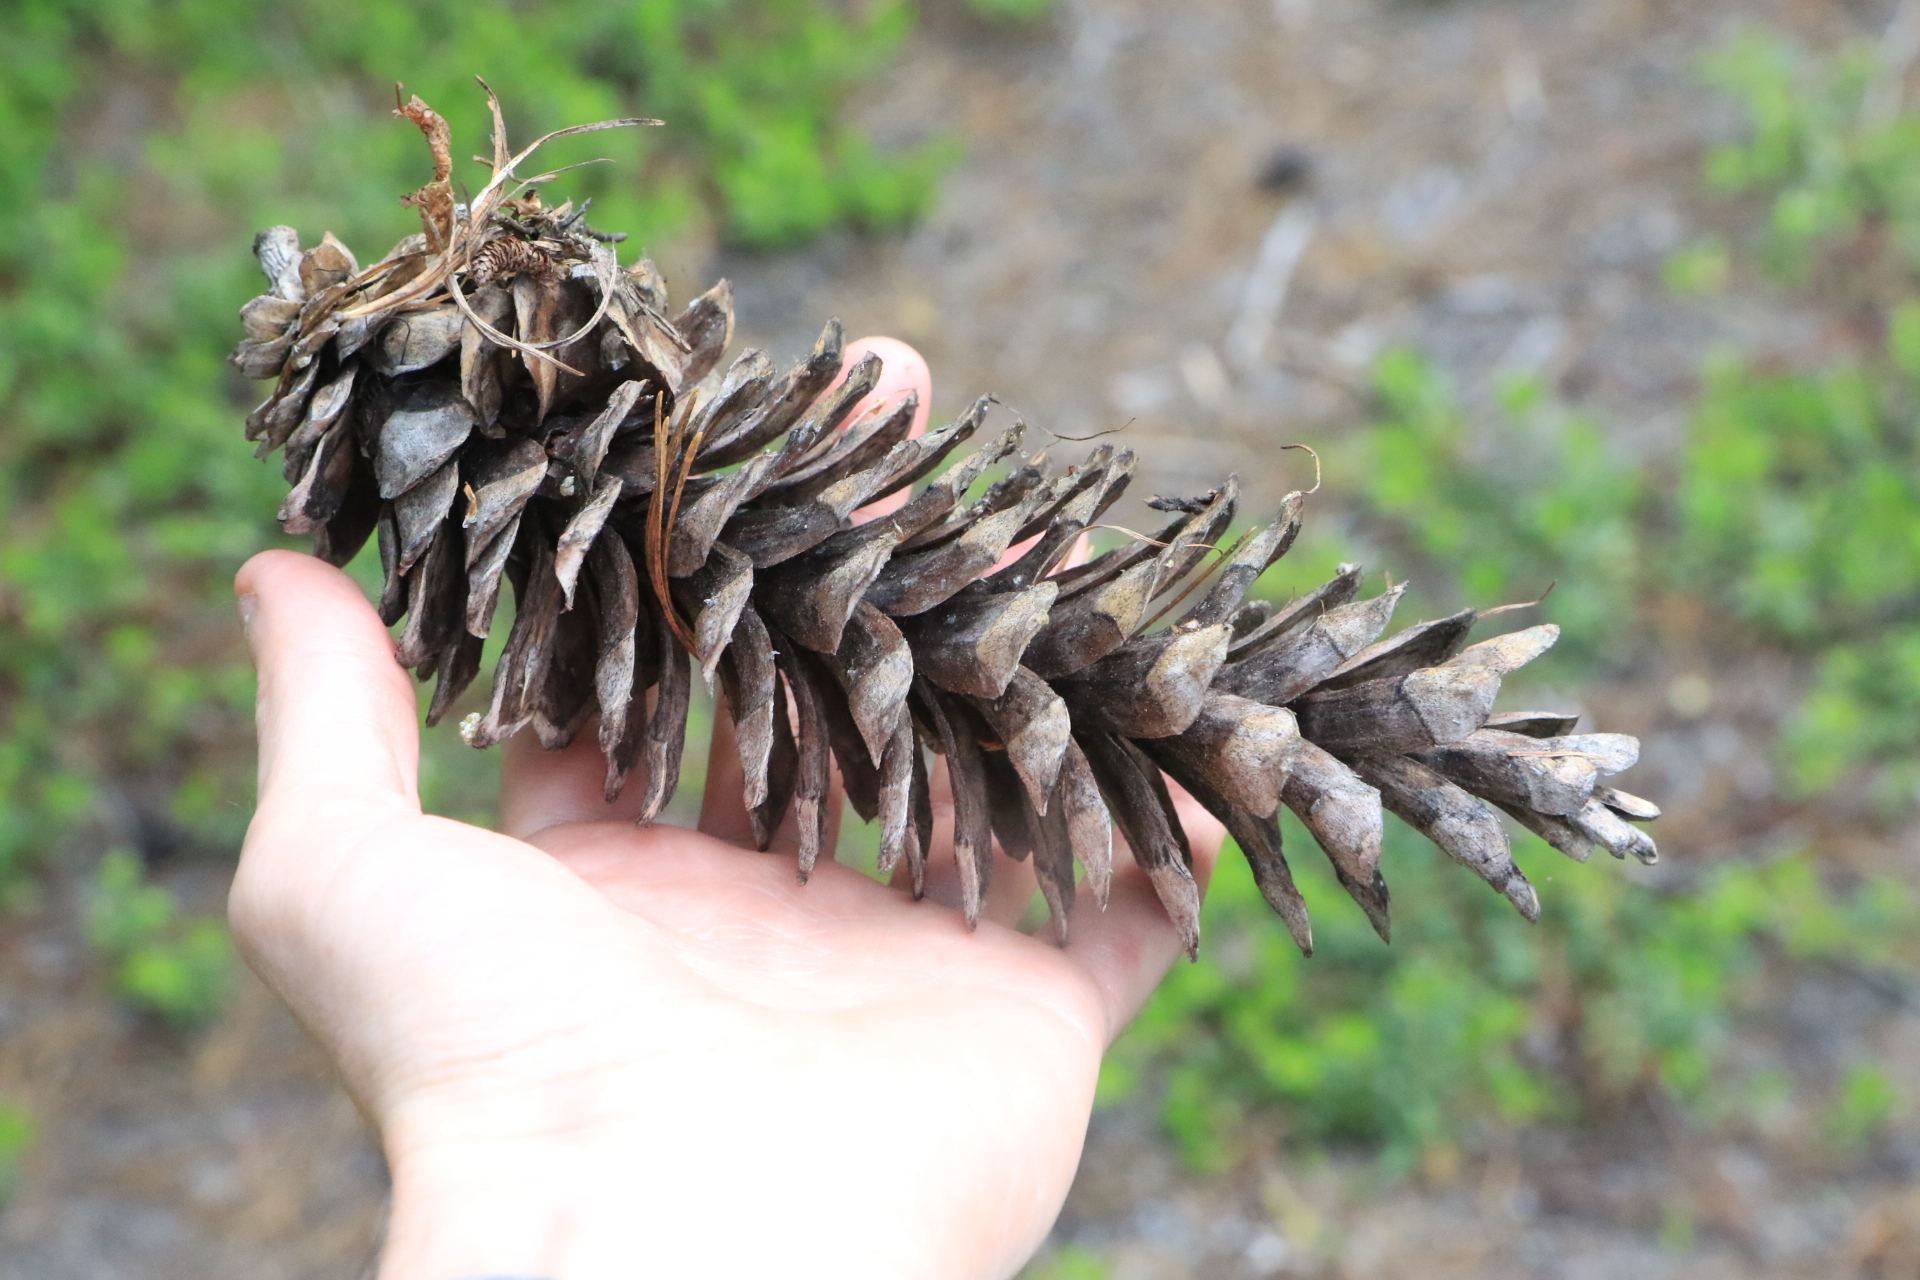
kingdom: Plantae
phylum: Tracheophyta
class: Pinopsida
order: Pinales
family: Pinaceae
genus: Pinus
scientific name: Pinus monticola
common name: Western white pine
